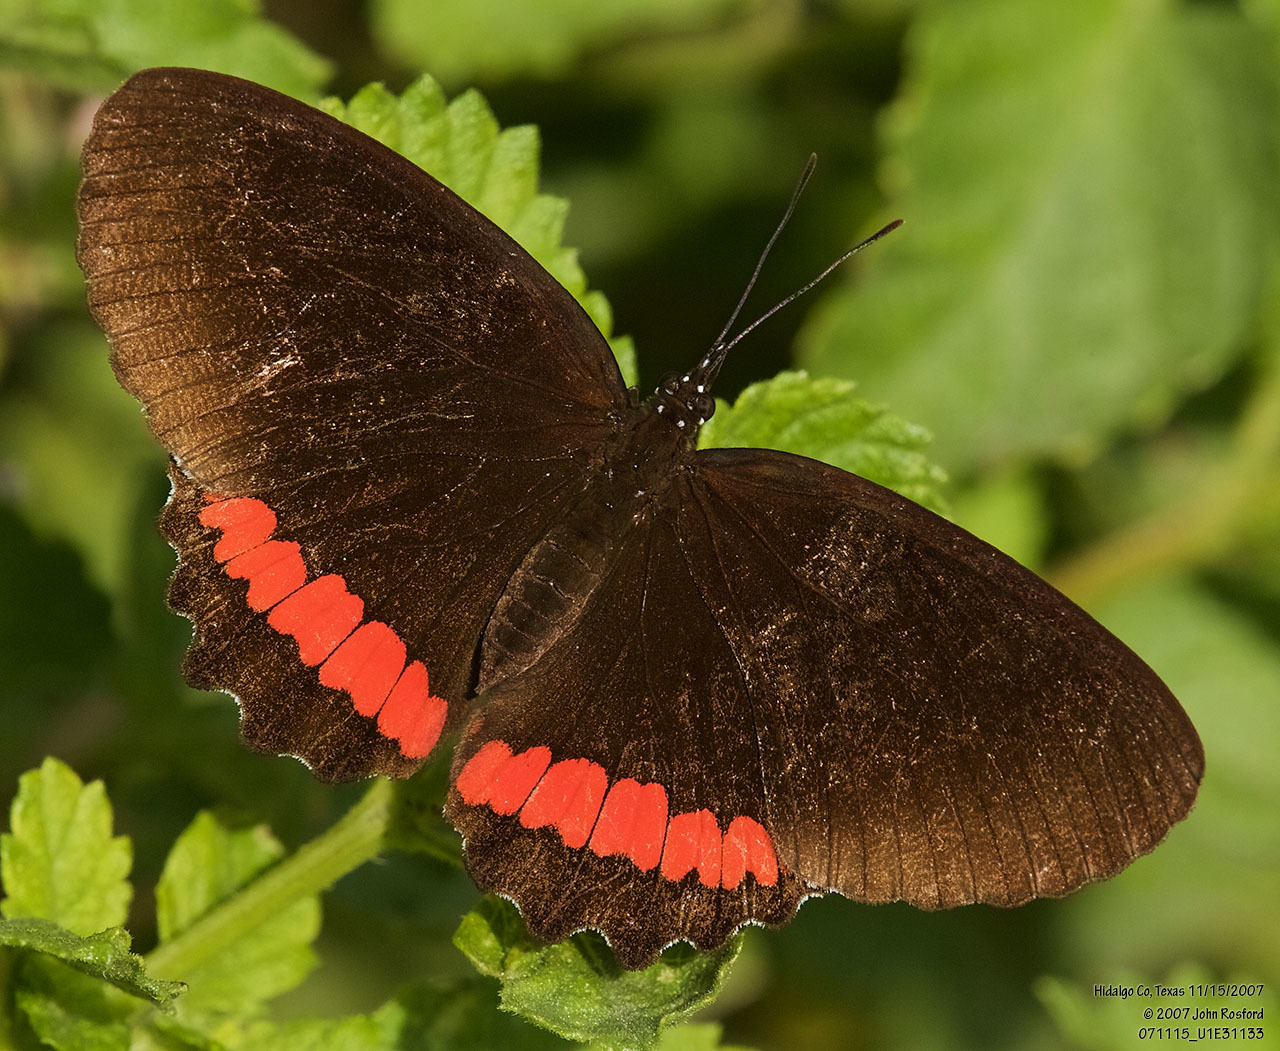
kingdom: Animalia
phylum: Arthropoda
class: Insecta
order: Lepidoptera
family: Nymphalidae
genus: Biblis
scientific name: Biblis aganisa
